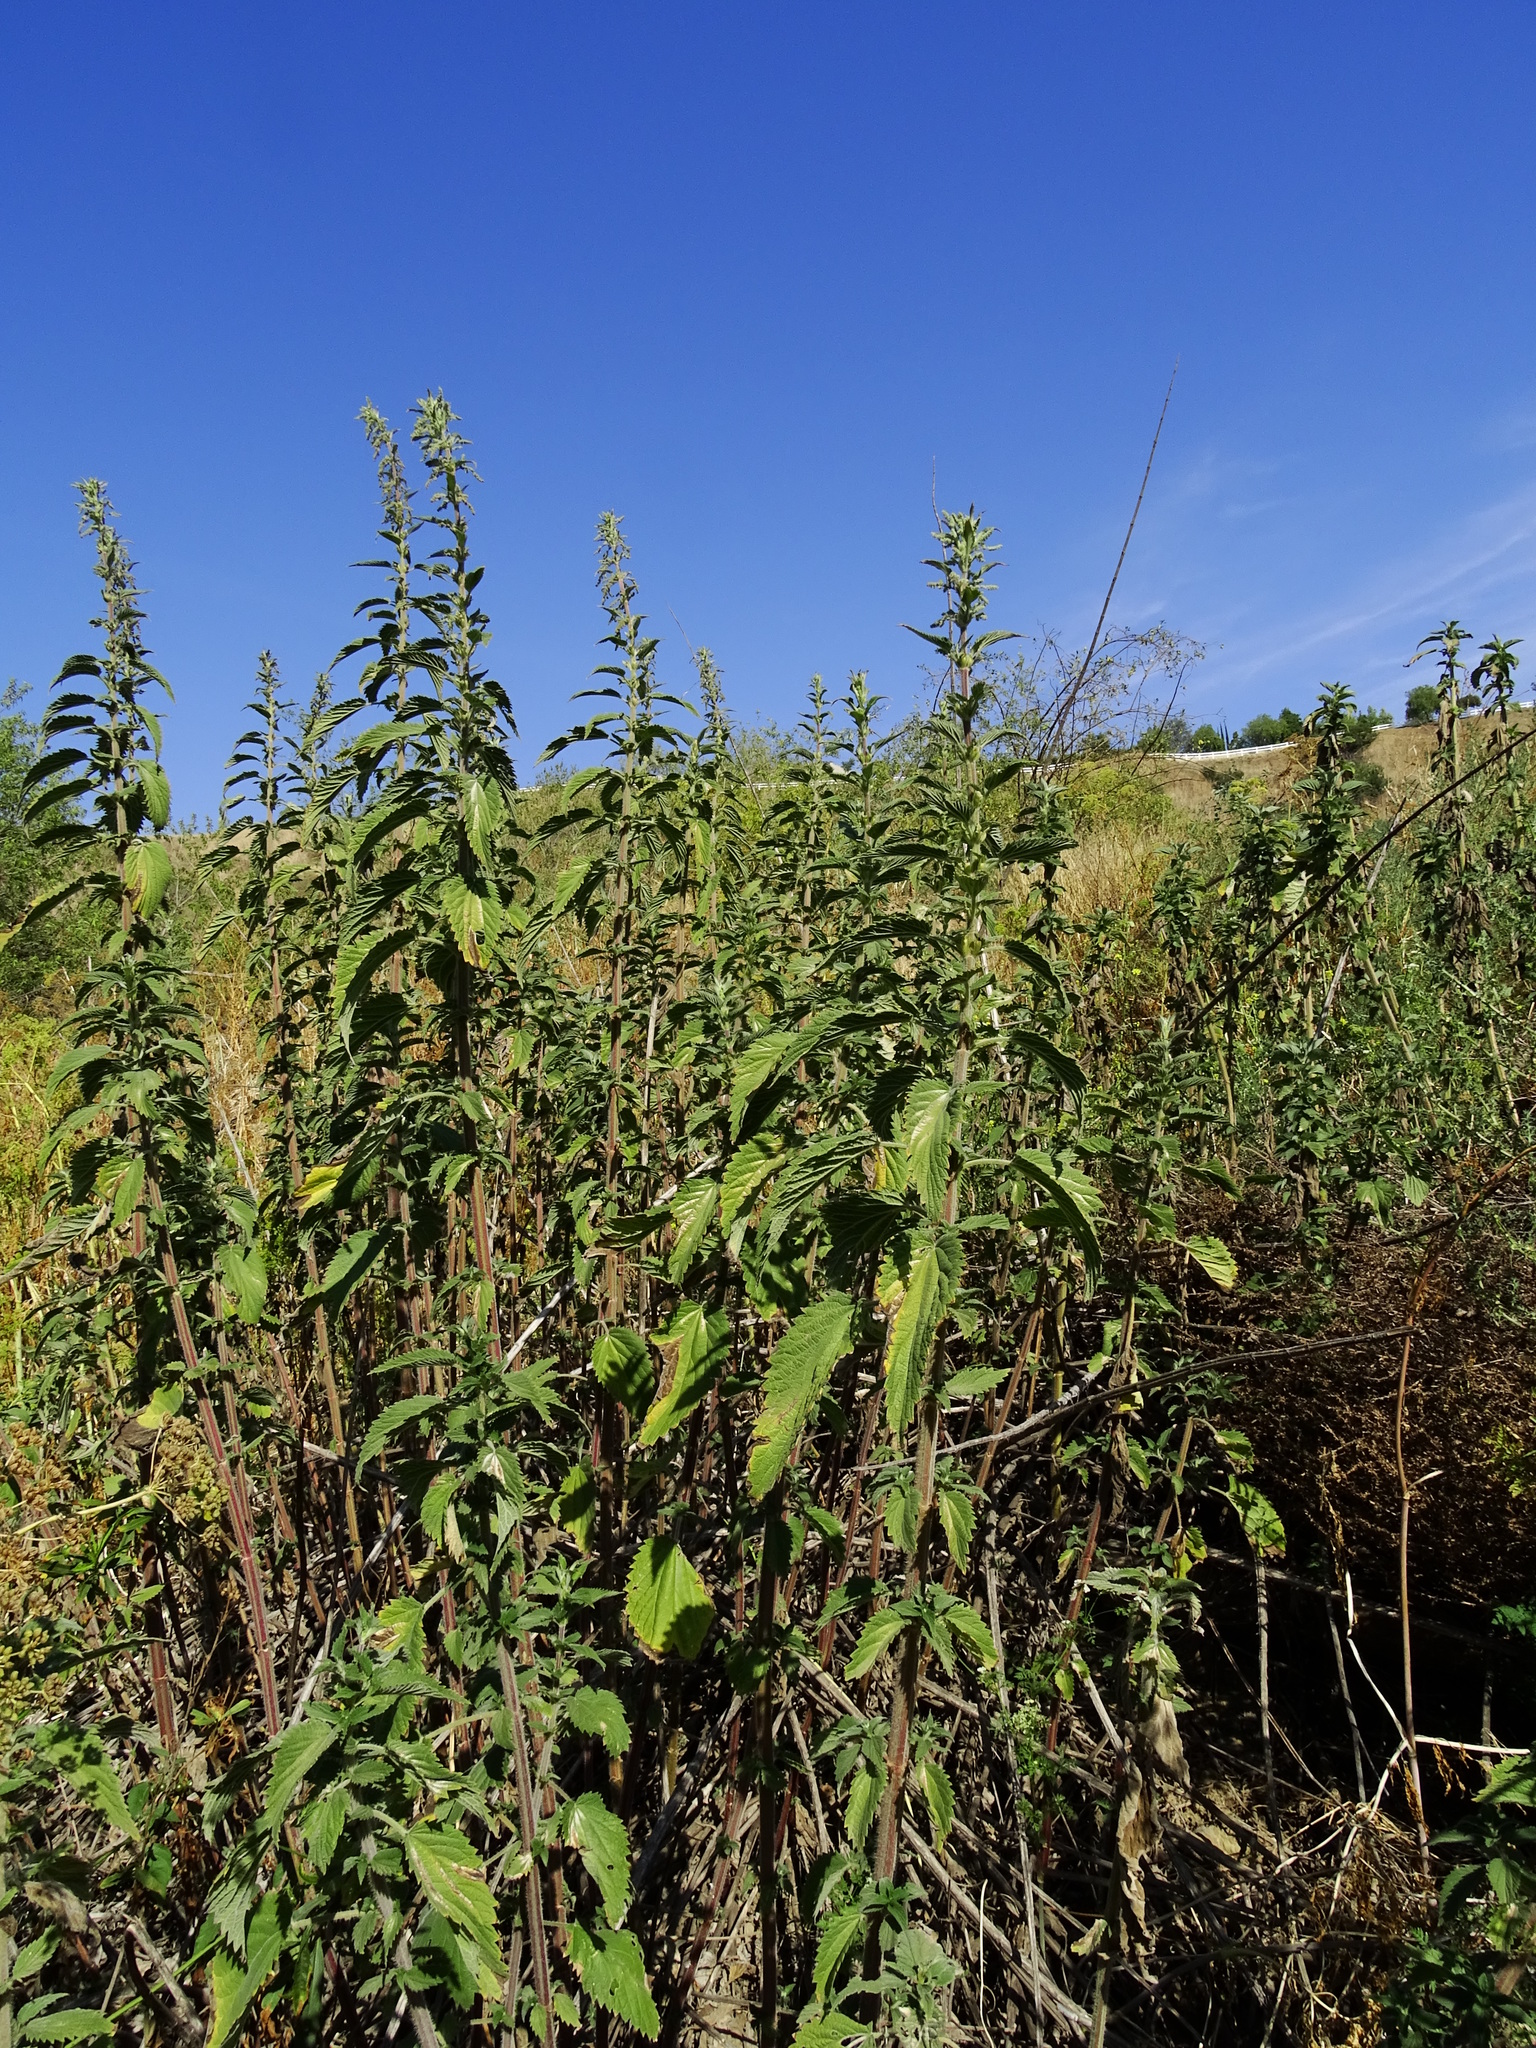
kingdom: Plantae
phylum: Tracheophyta
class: Magnoliopsida
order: Rosales
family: Urticaceae
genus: Urtica
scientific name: Urtica dioica
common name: Common nettle
